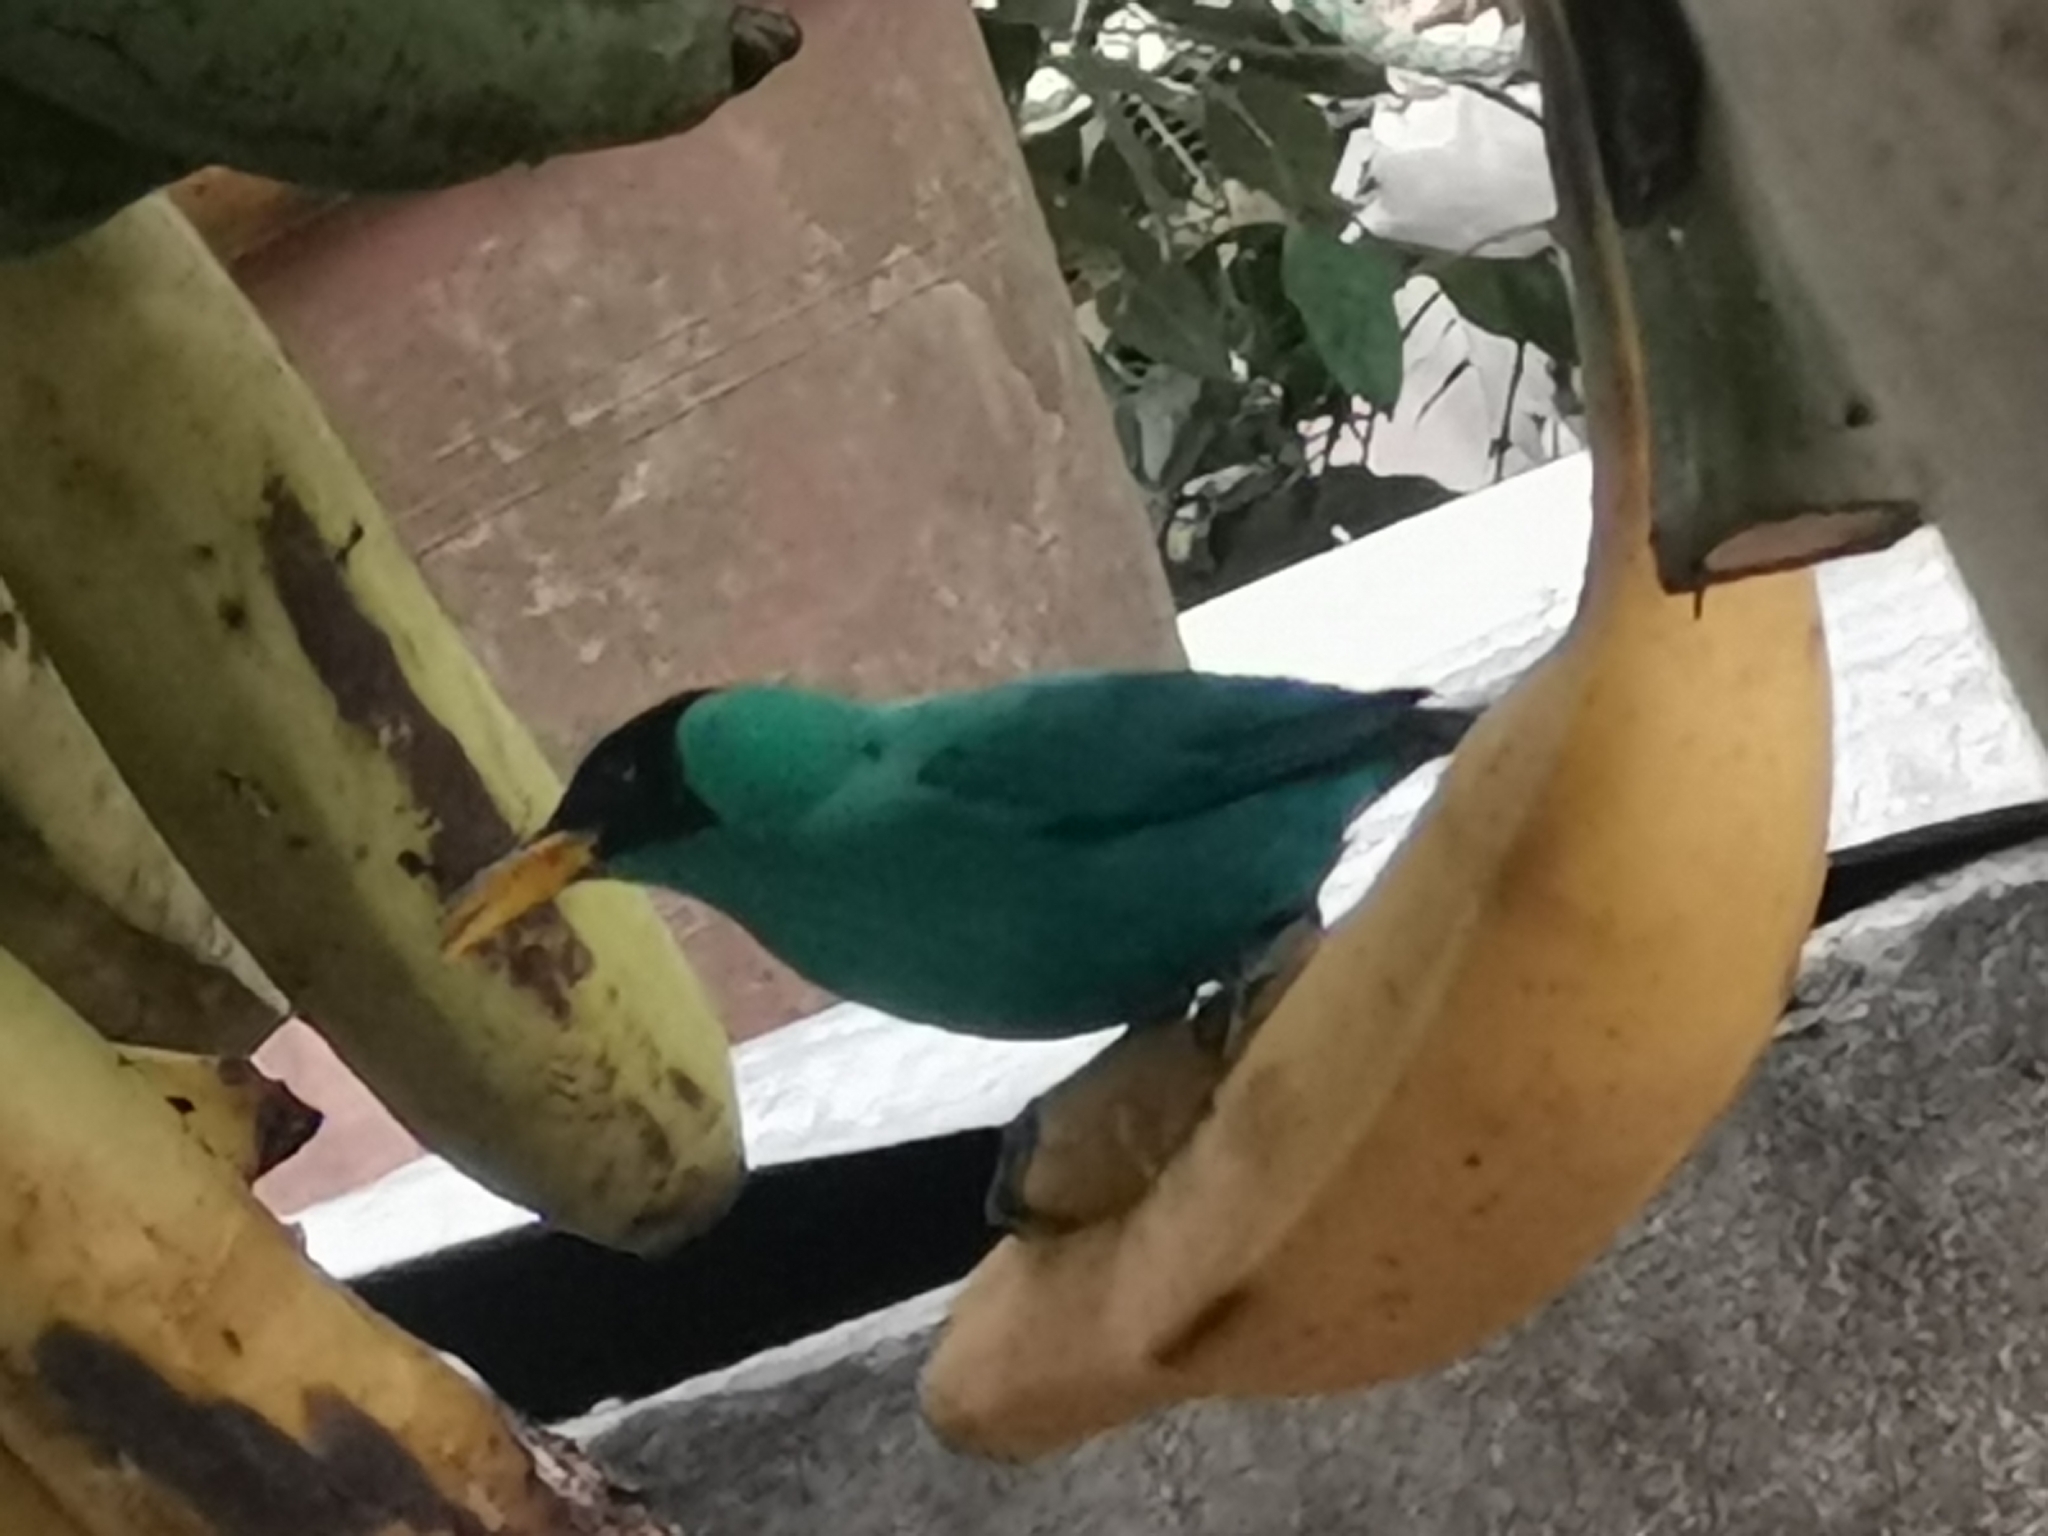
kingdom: Animalia
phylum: Chordata
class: Aves
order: Passeriformes
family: Thraupidae
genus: Chlorophanes
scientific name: Chlorophanes spiza
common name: Green honeycreeper
